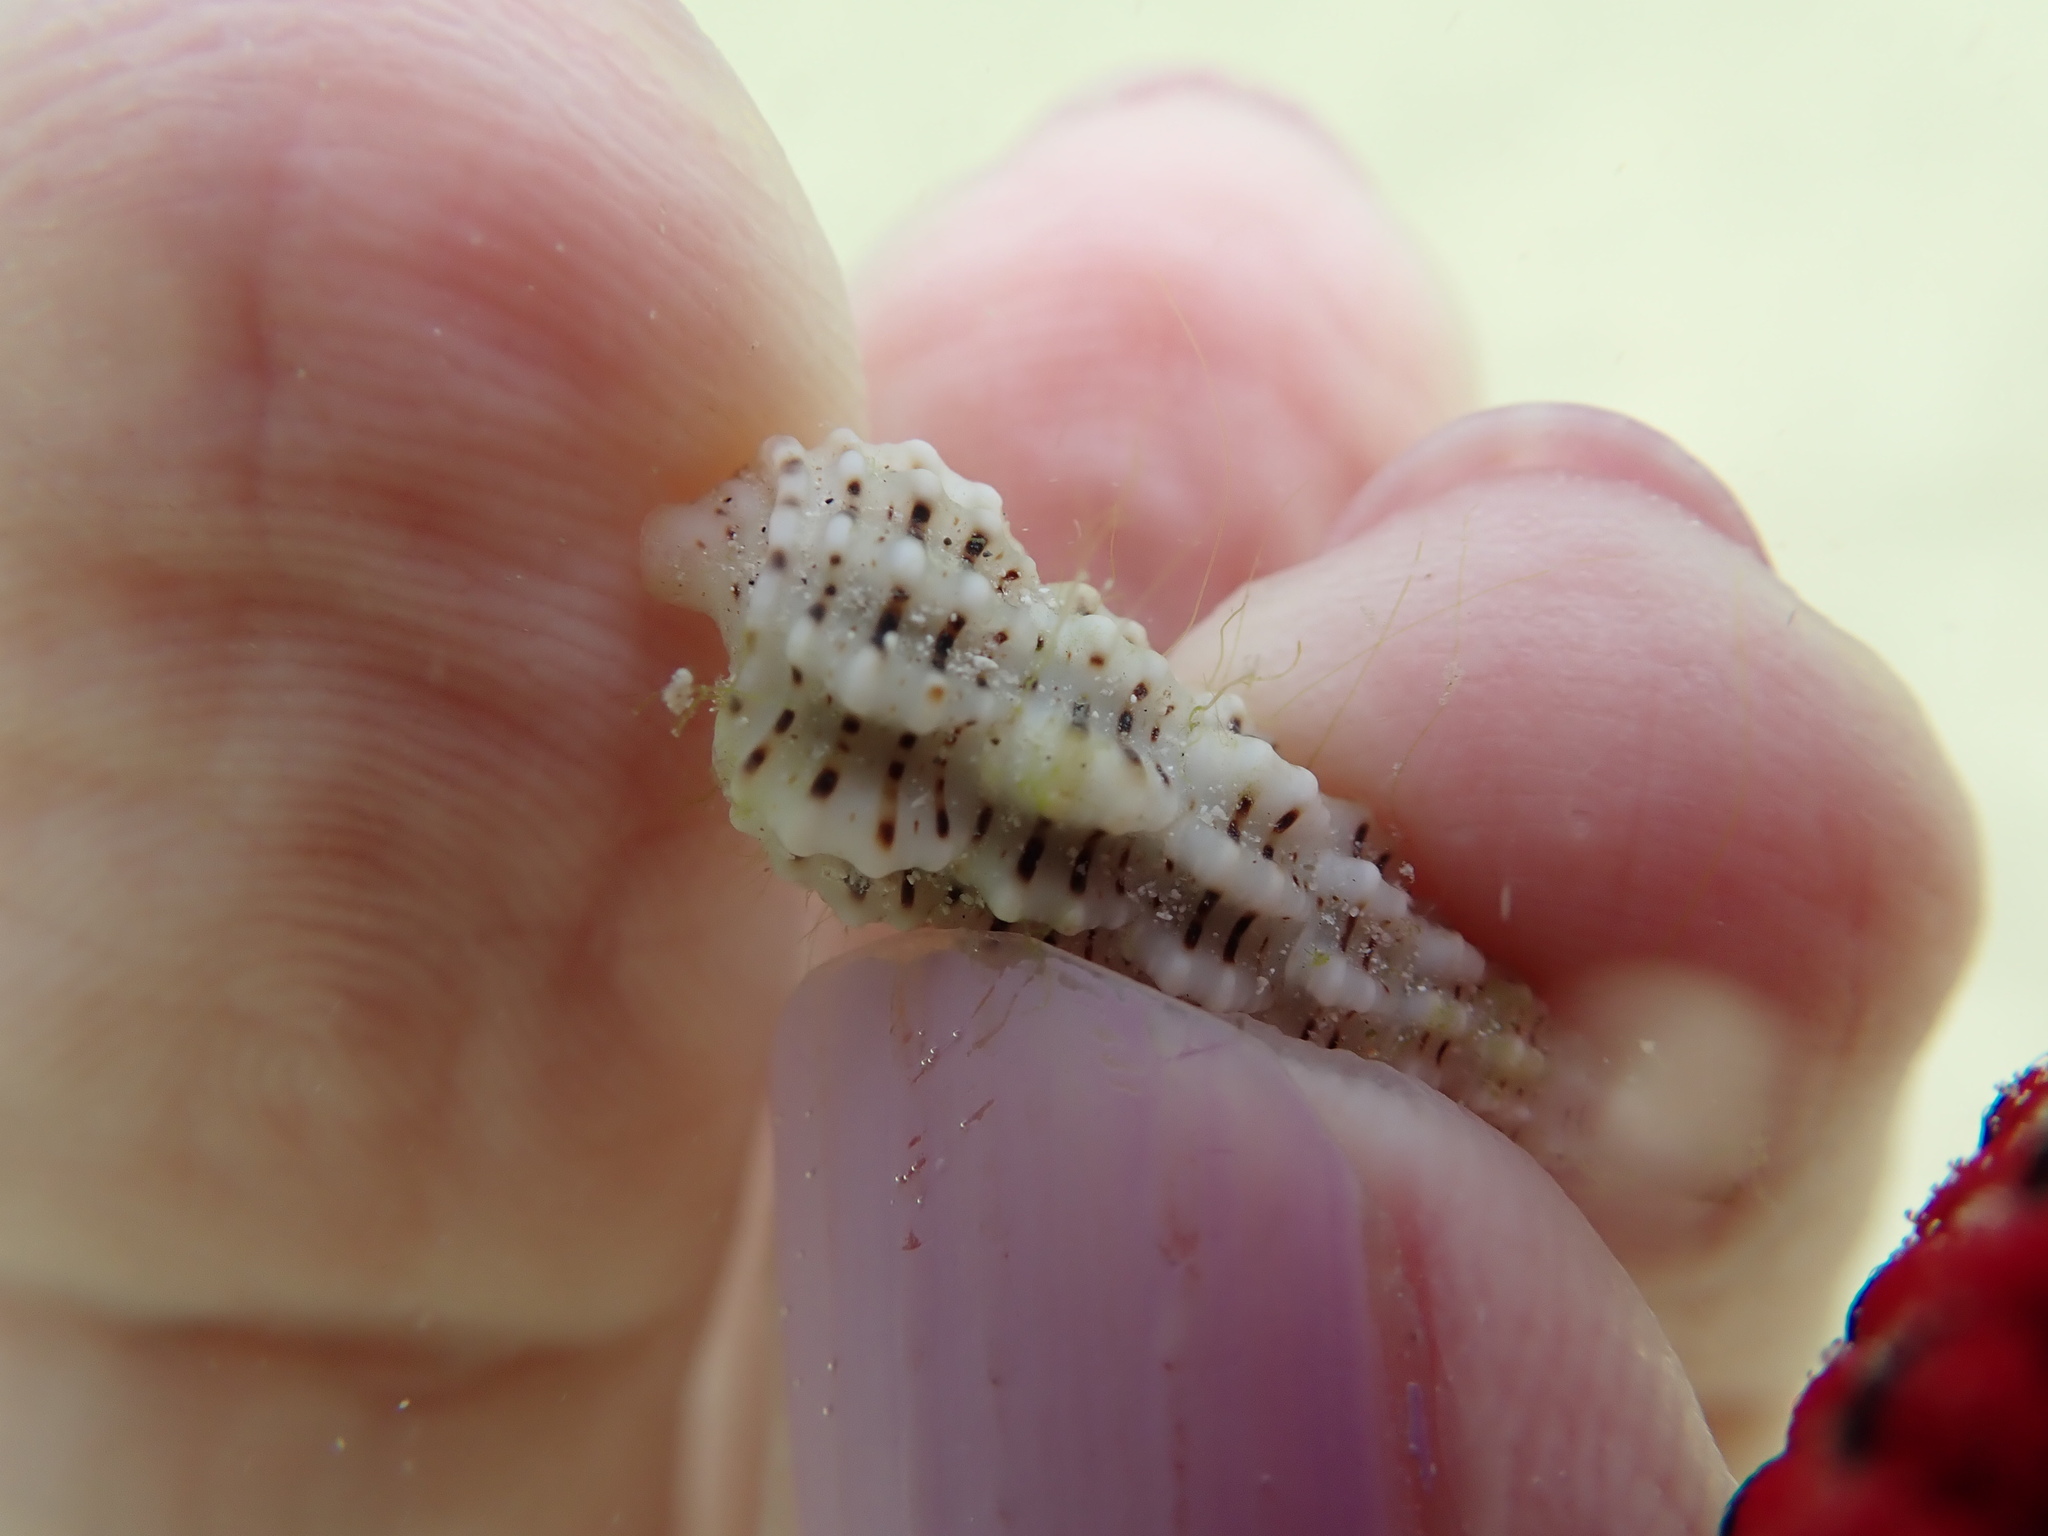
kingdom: Animalia
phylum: Mollusca
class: Gastropoda
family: Cerithiidae
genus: Cerithium
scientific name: Cerithium muscarum
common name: Fly-specked cerith
